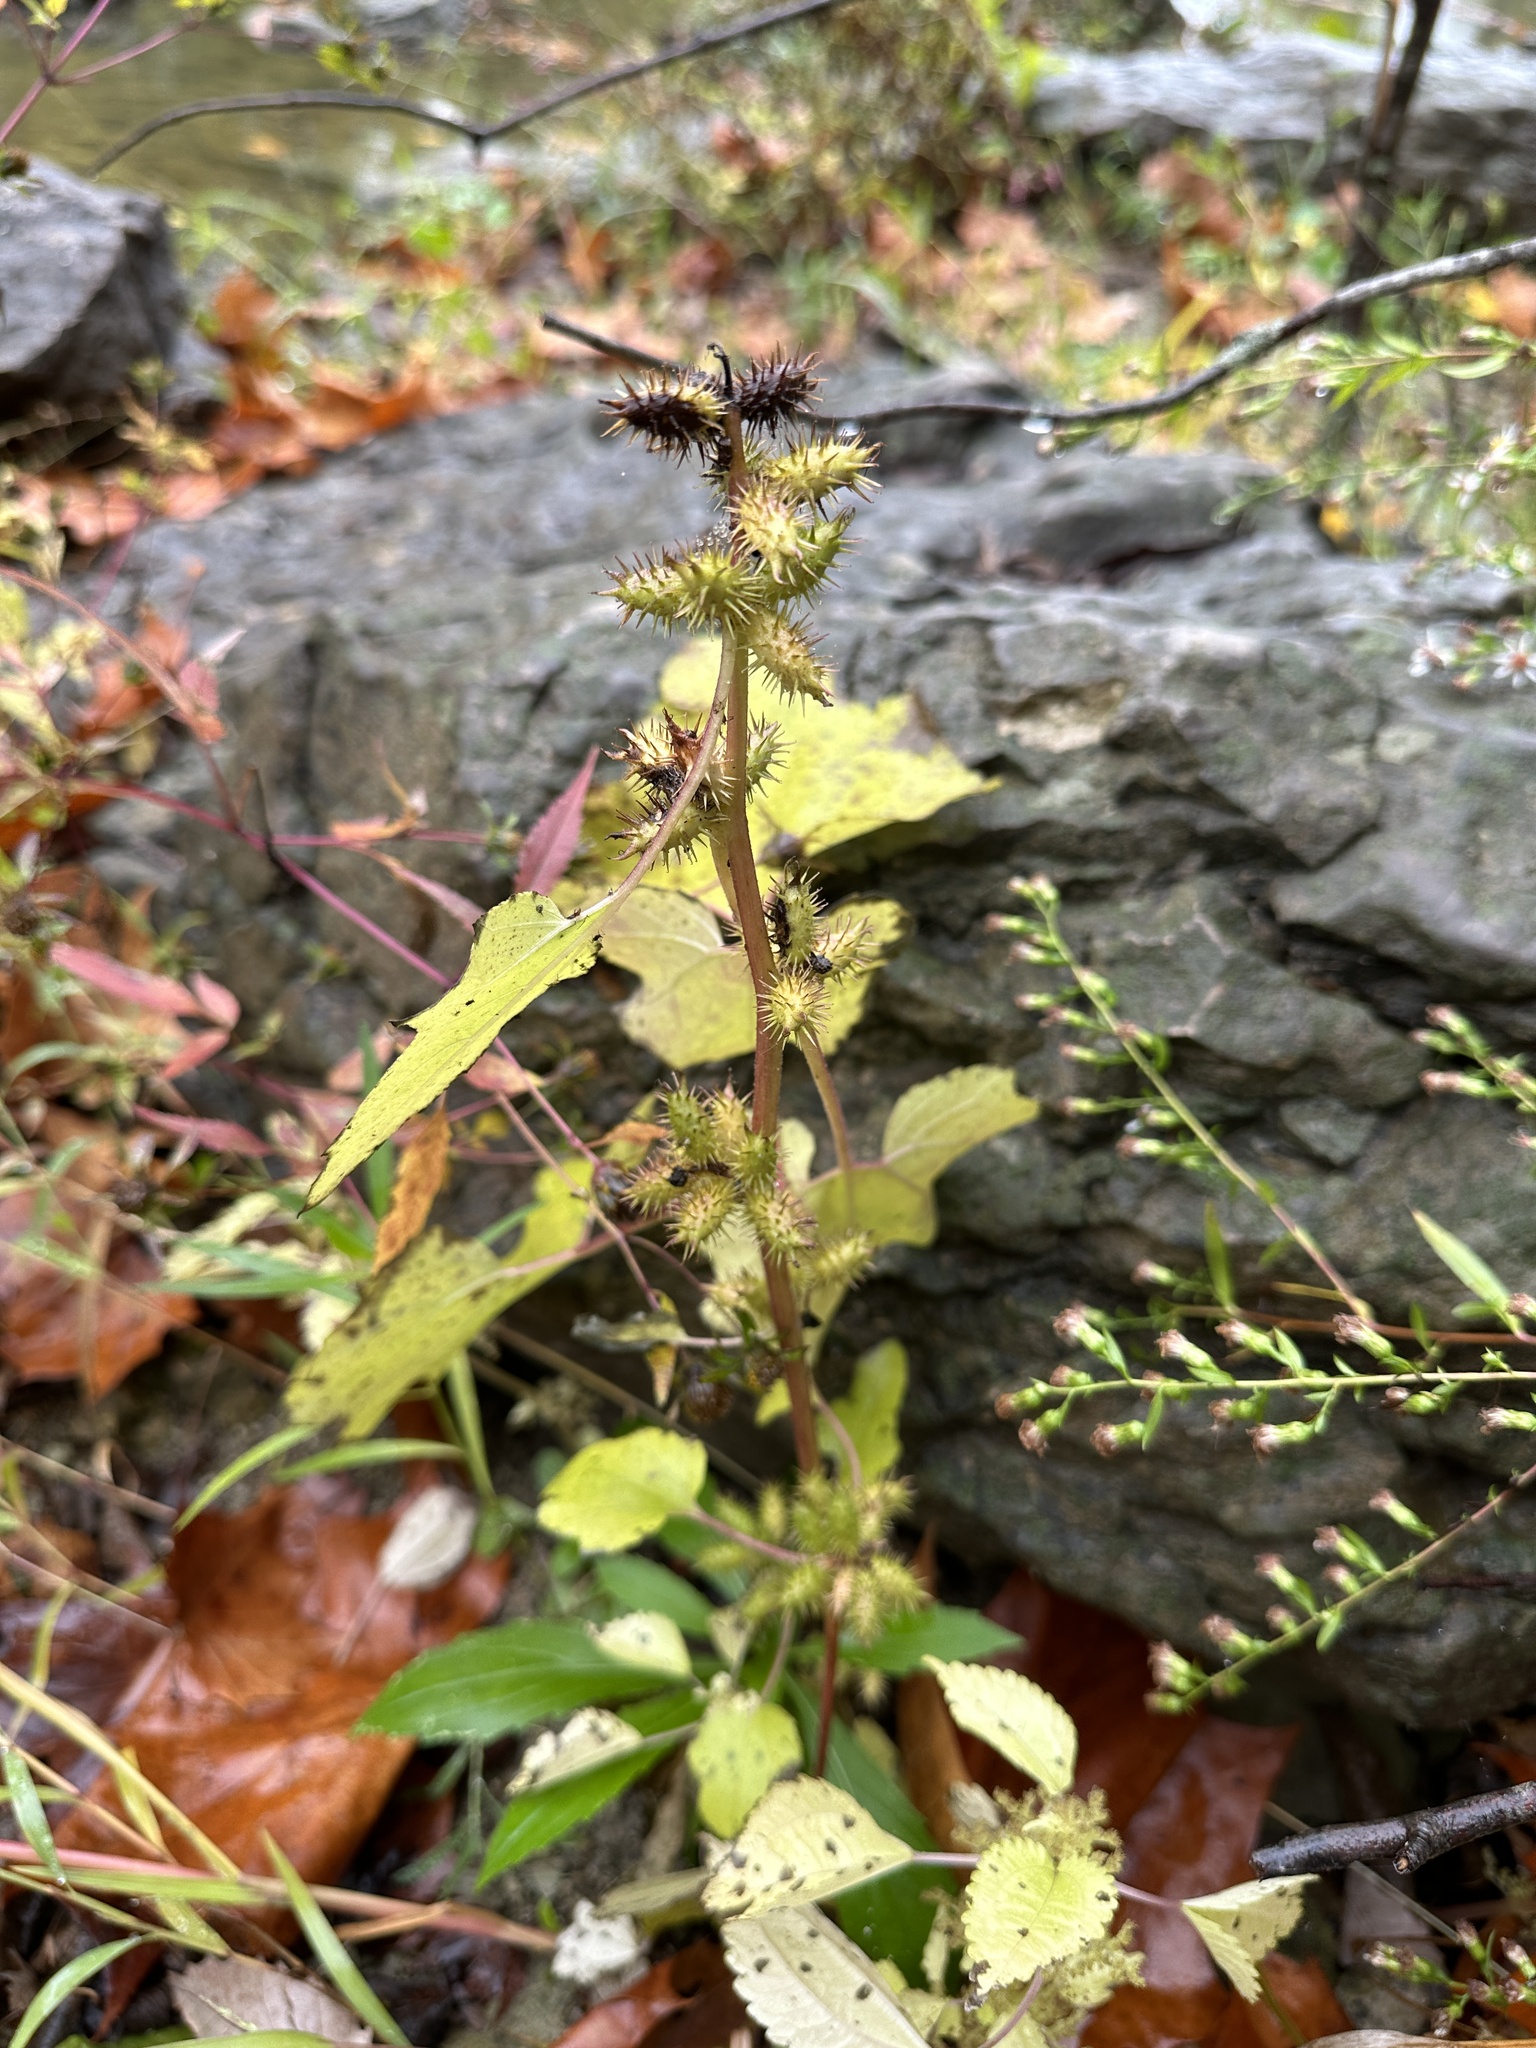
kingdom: Plantae
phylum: Tracheophyta
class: Magnoliopsida
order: Asterales
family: Asteraceae
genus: Xanthium
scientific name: Xanthium strumarium
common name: Rough cocklebur
